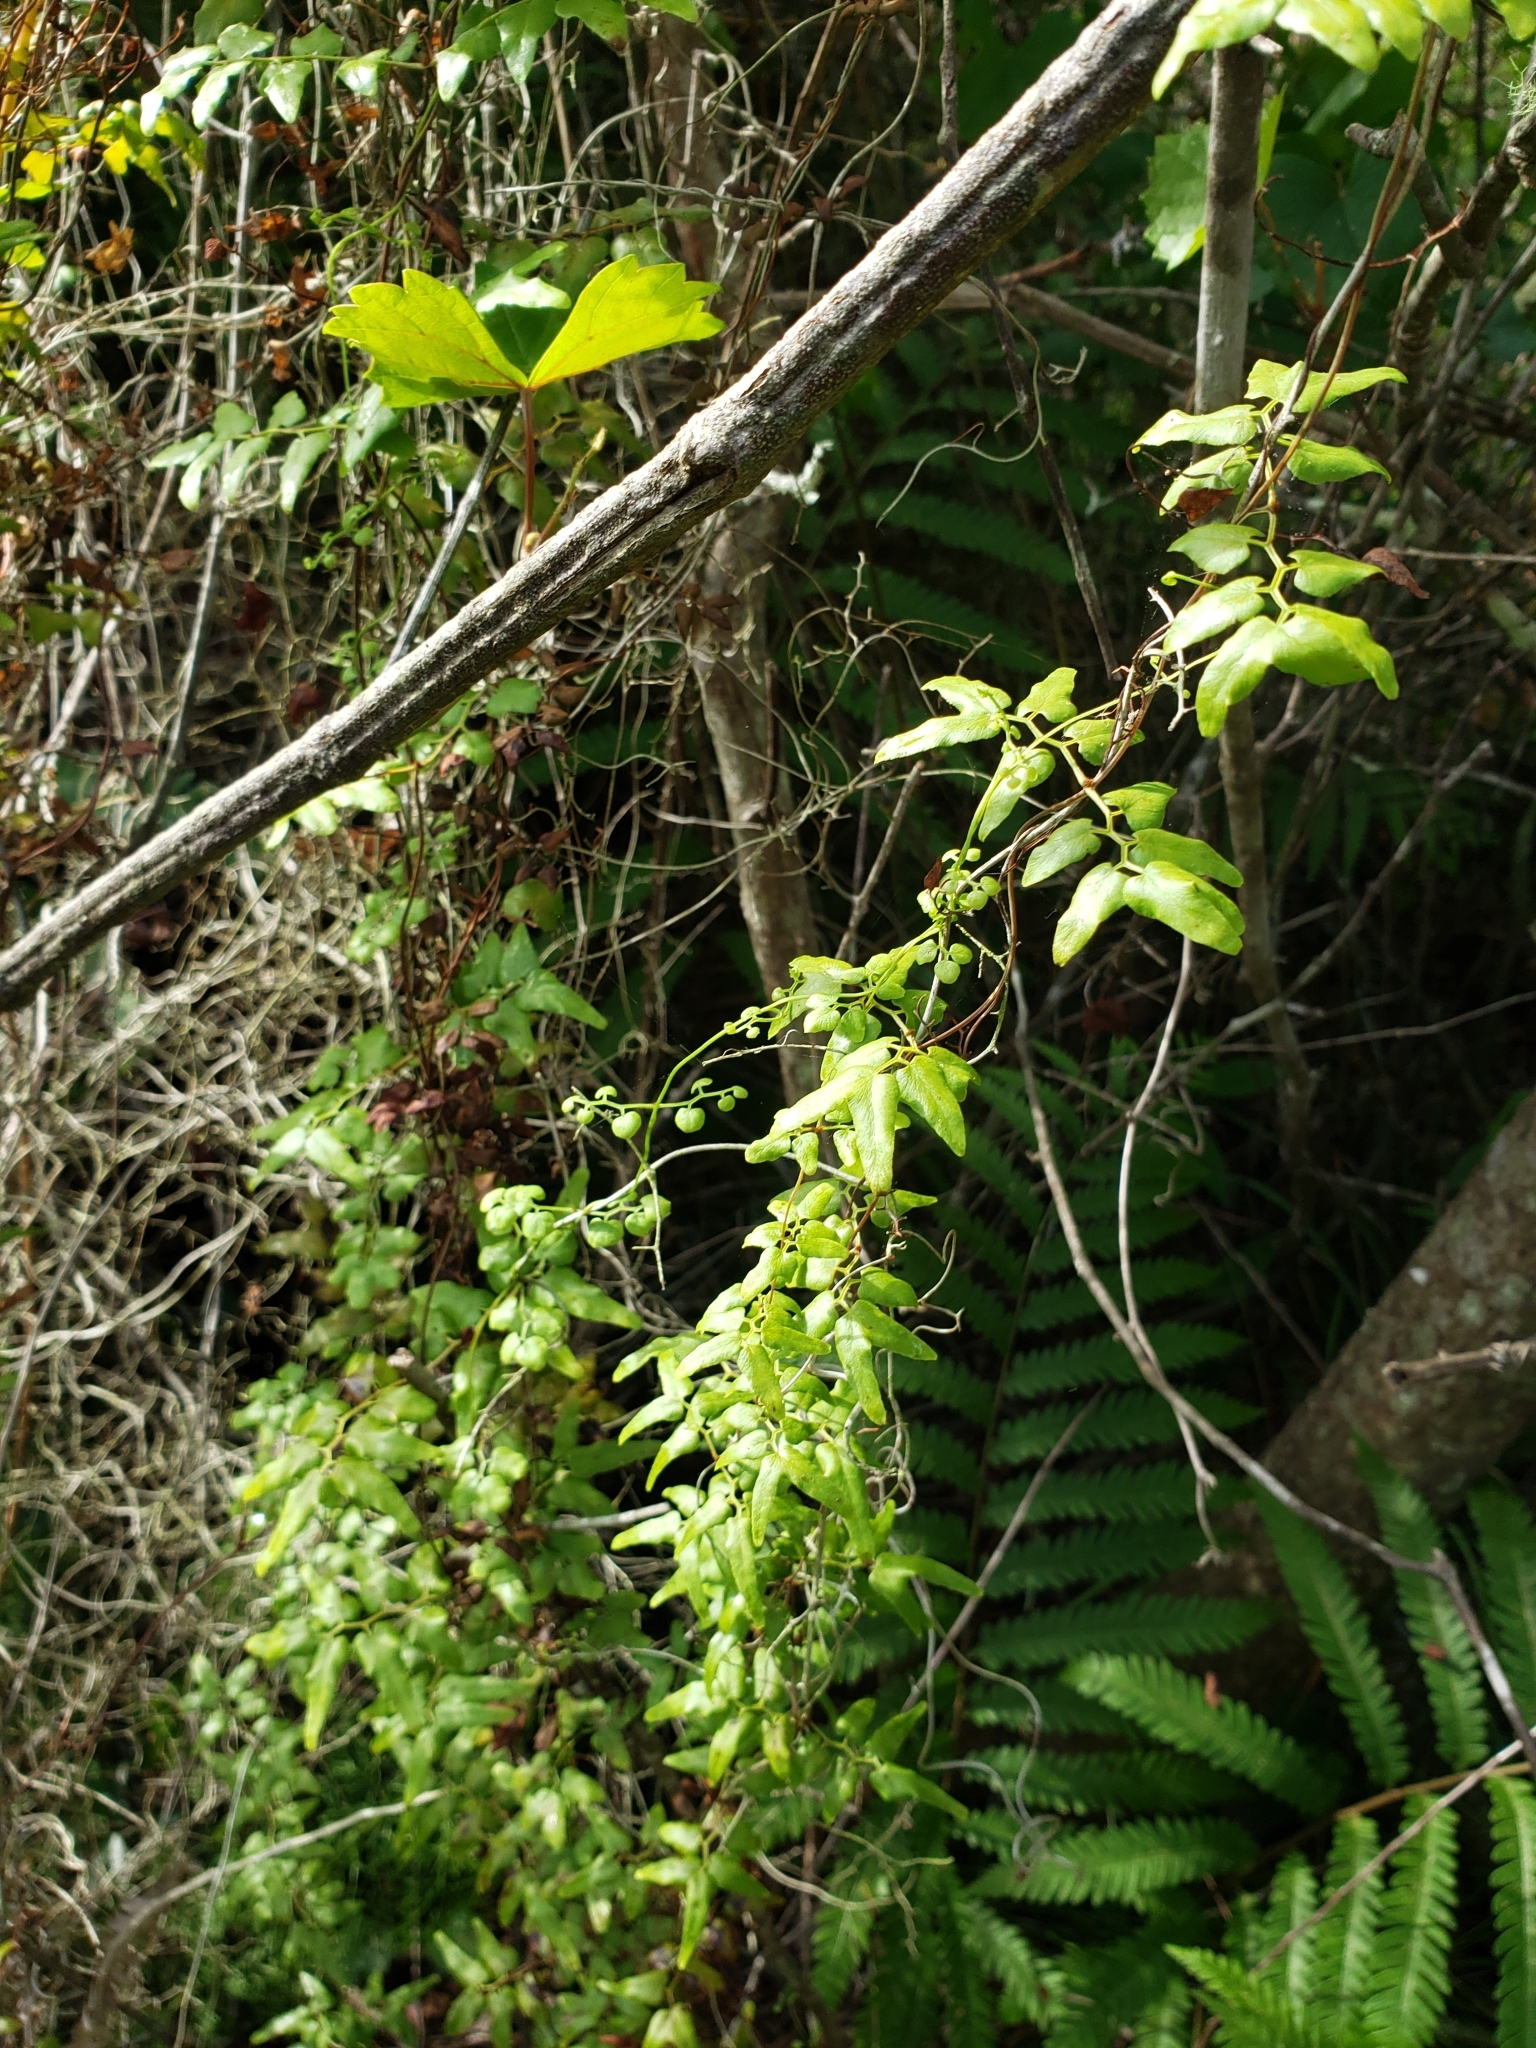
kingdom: Plantae
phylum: Tracheophyta
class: Polypodiopsida
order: Schizaeales
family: Lygodiaceae
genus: Lygodium
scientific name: Lygodium microphyllum
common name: Small-leaf climbing fern
